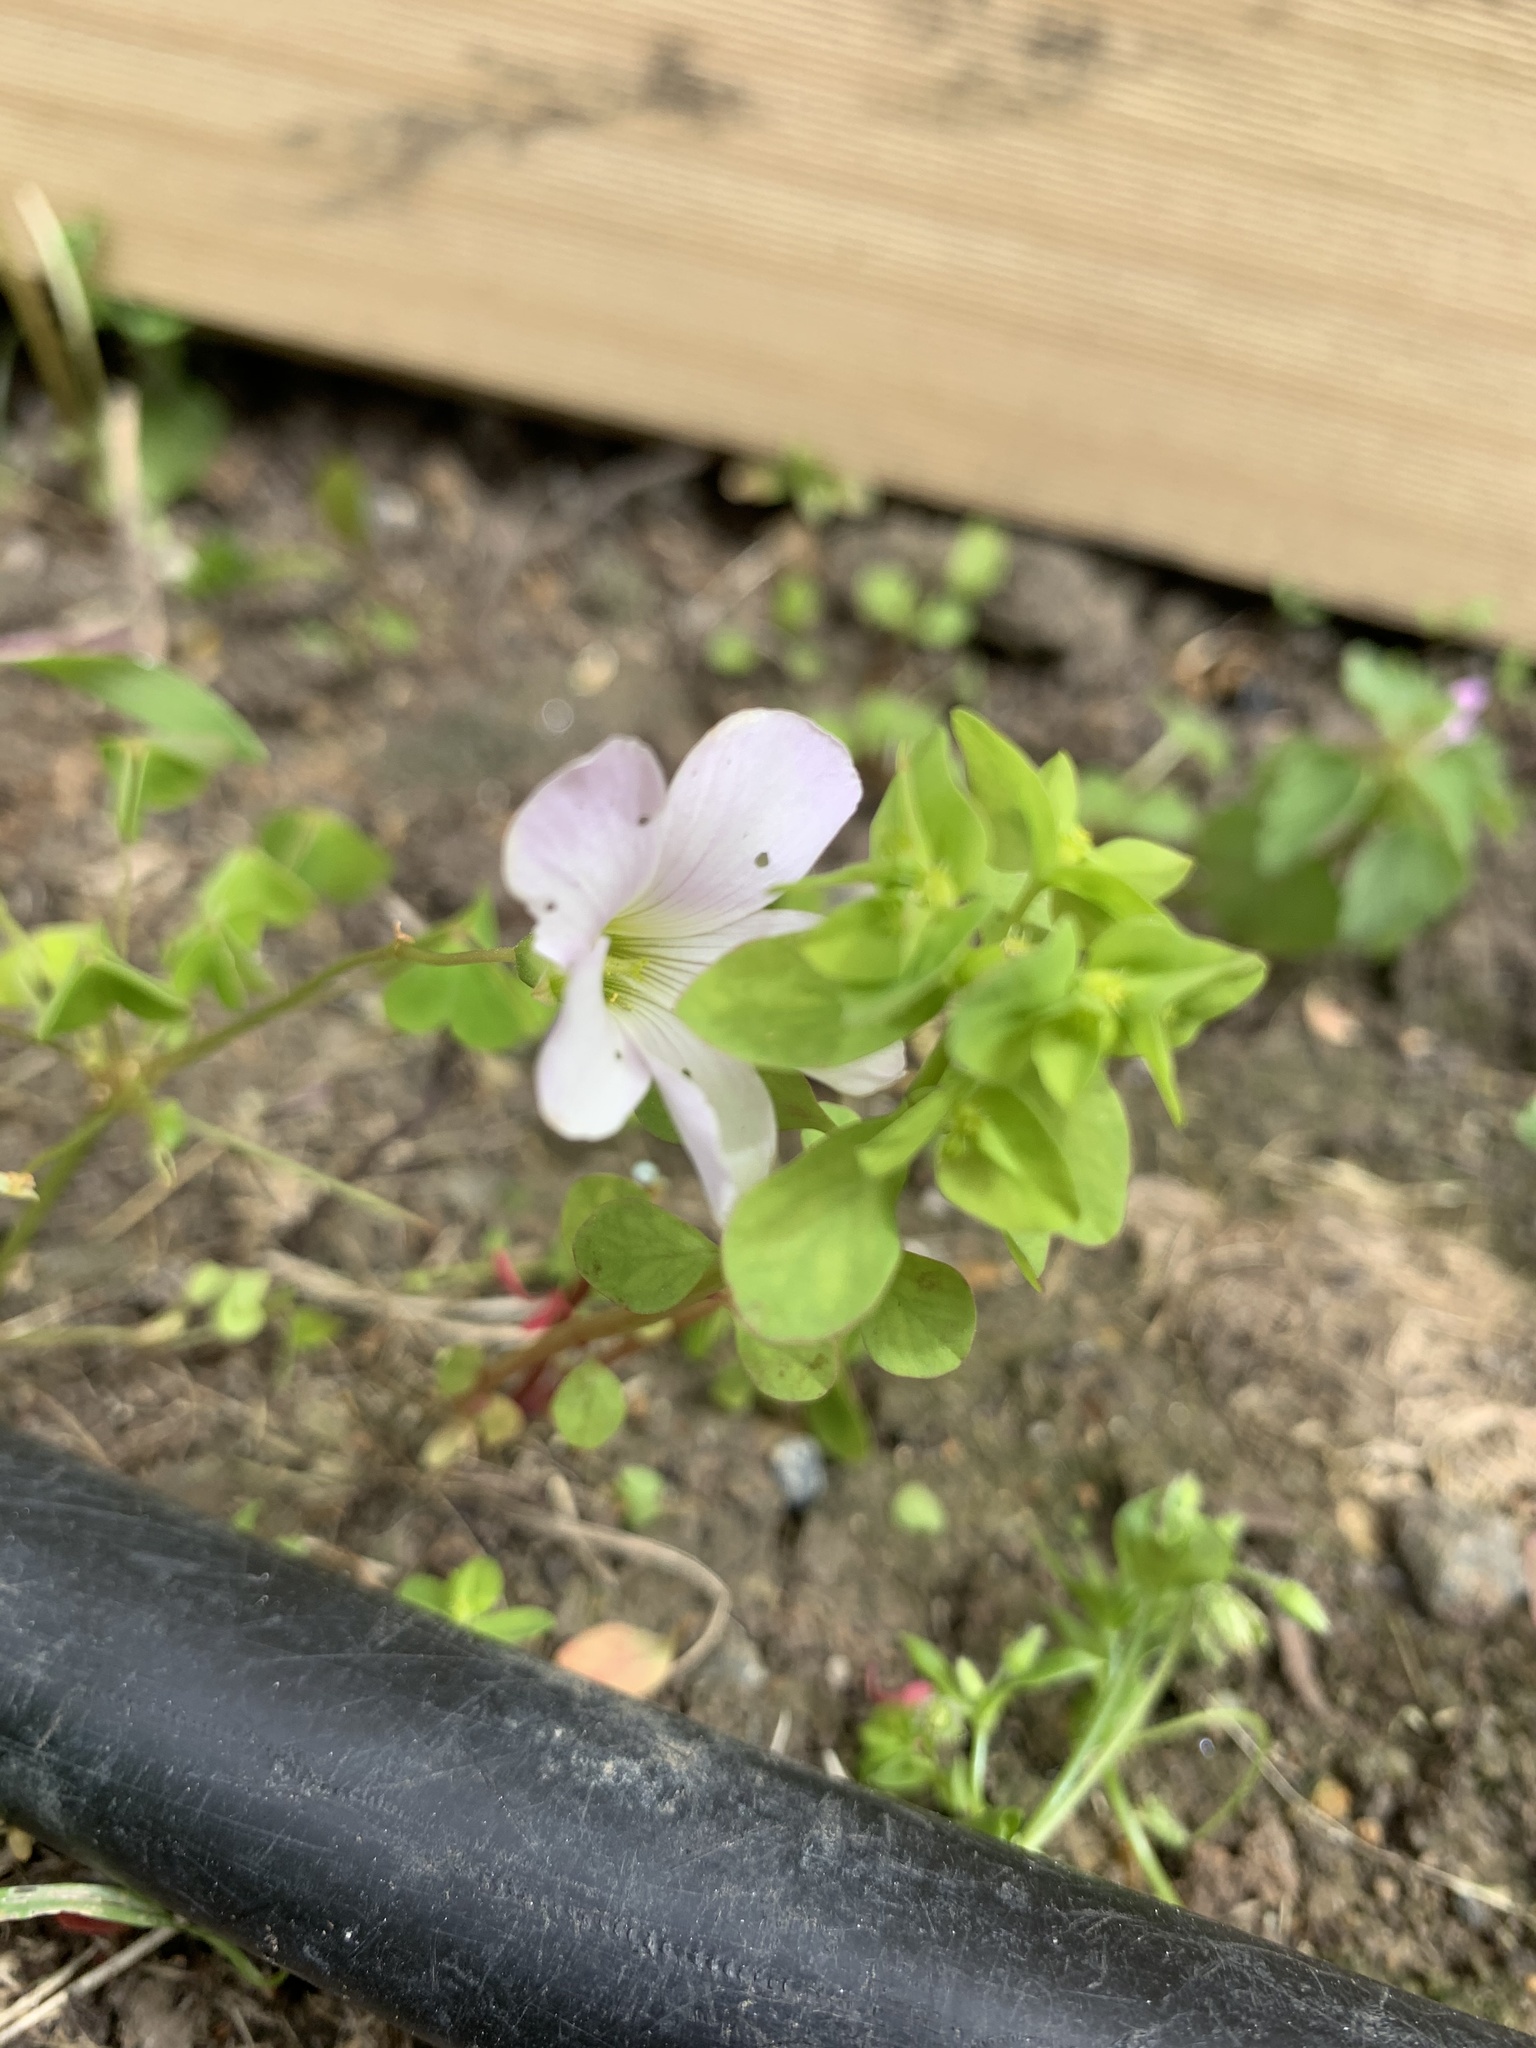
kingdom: Plantae
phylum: Tracheophyta
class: Magnoliopsida
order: Oxalidales
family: Oxalidaceae
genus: Oxalis
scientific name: Oxalis incarnata
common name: Pale pink-sorrel
